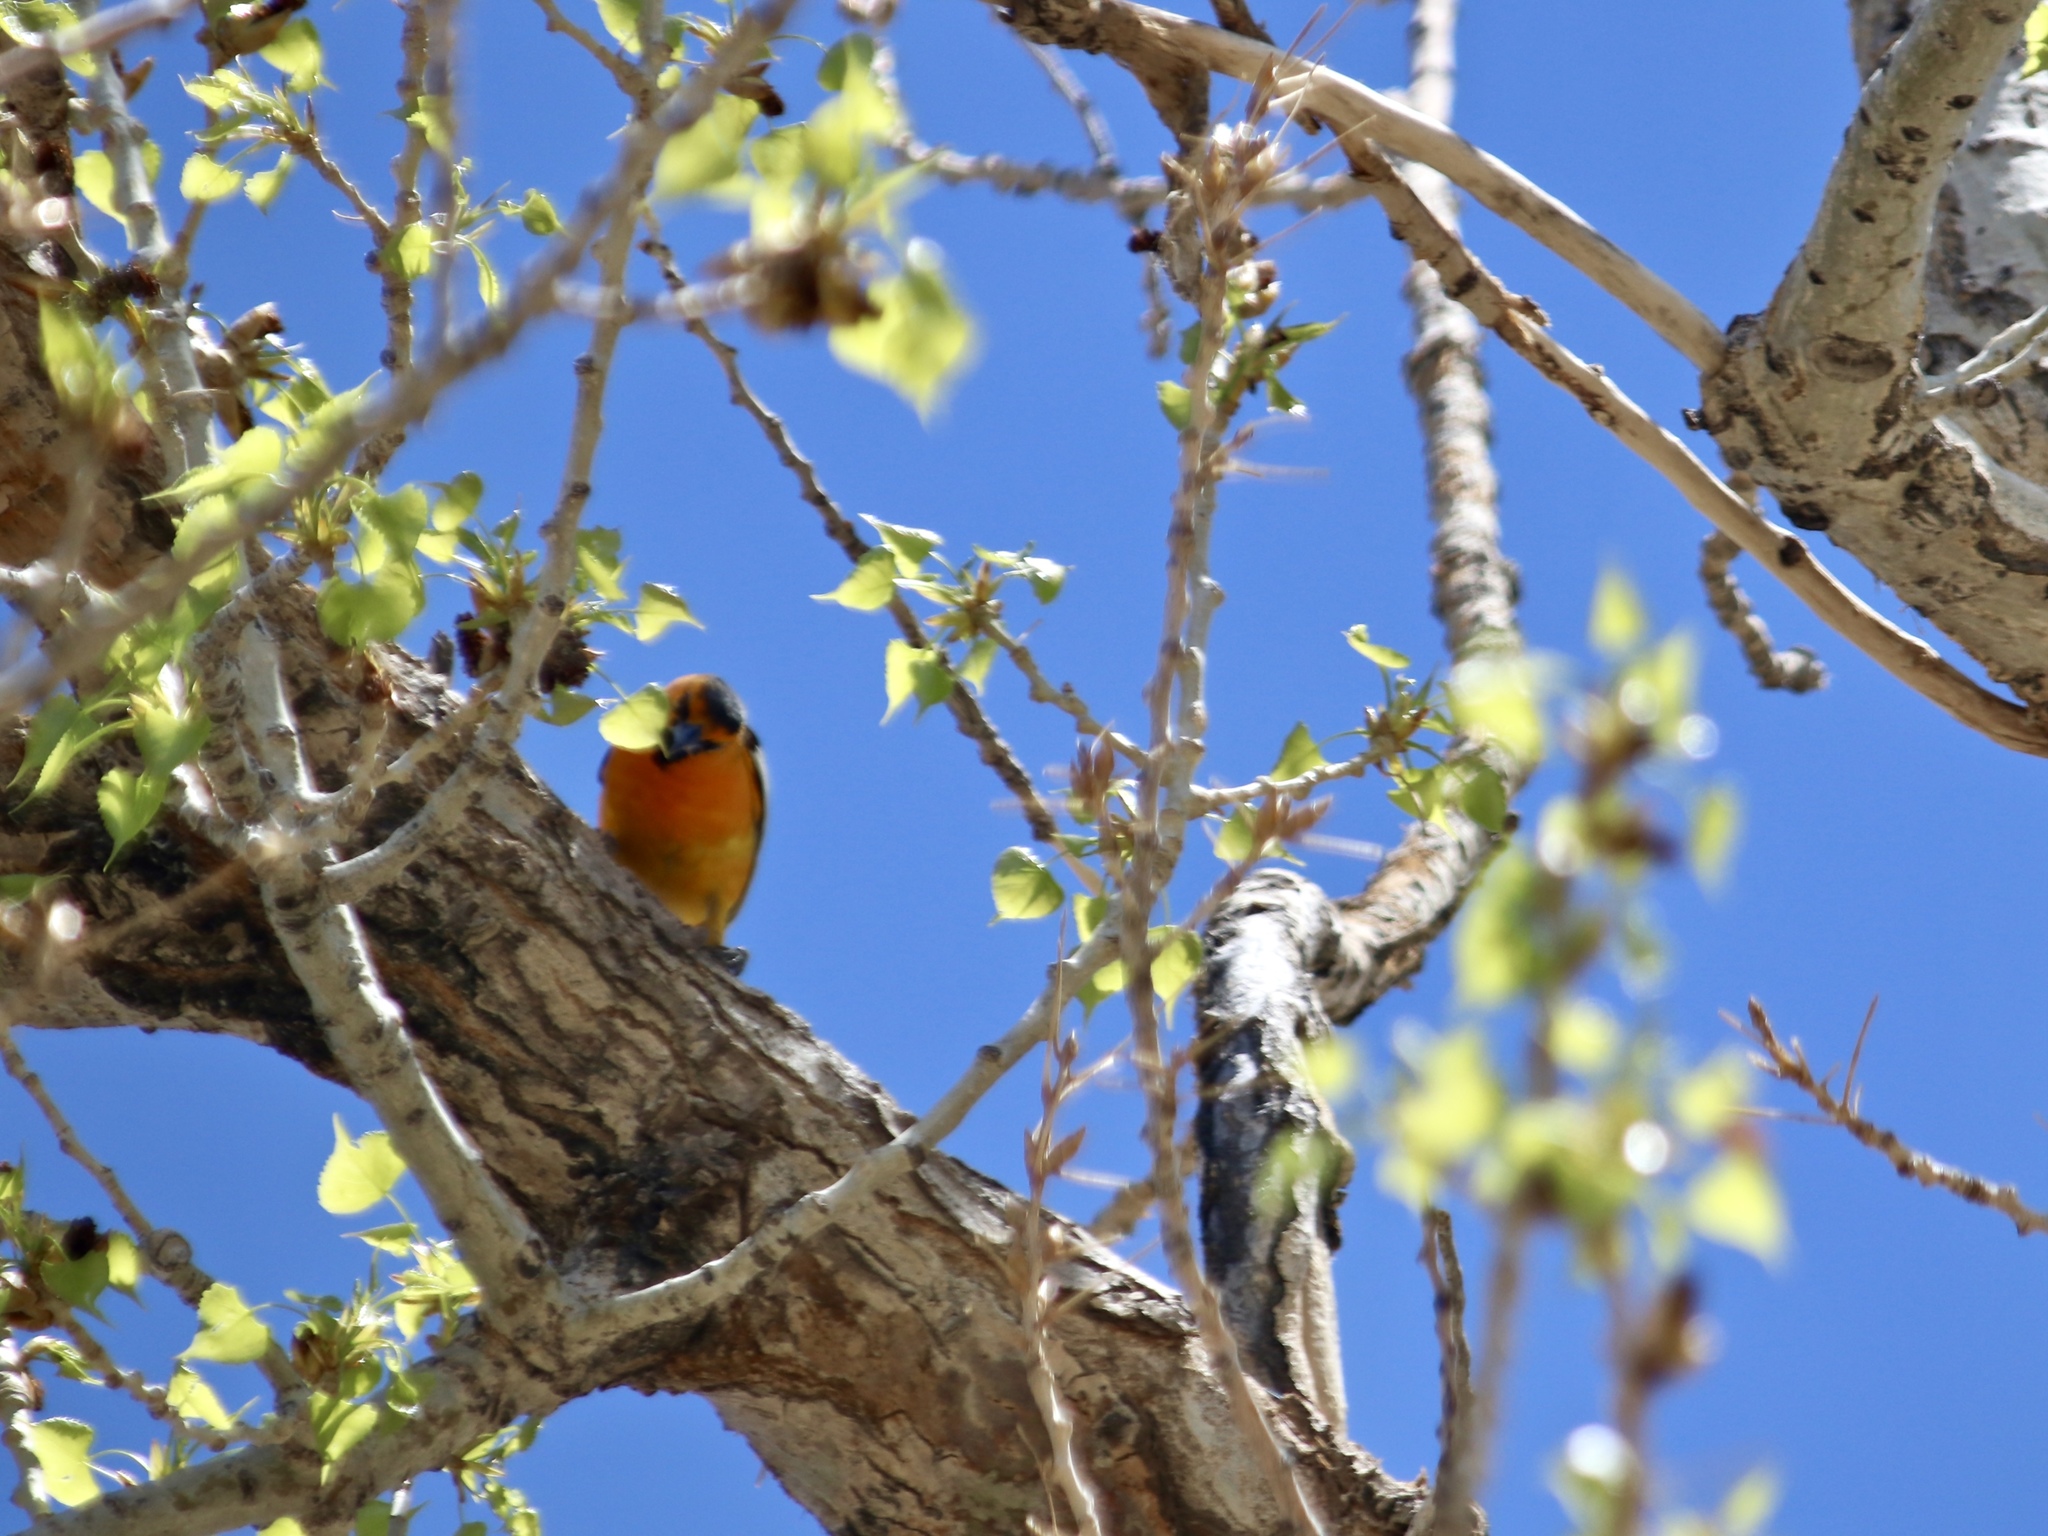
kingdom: Animalia
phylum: Chordata
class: Aves
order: Passeriformes
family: Icteridae
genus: Icterus
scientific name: Icterus bullockii
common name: Bullock's oriole
